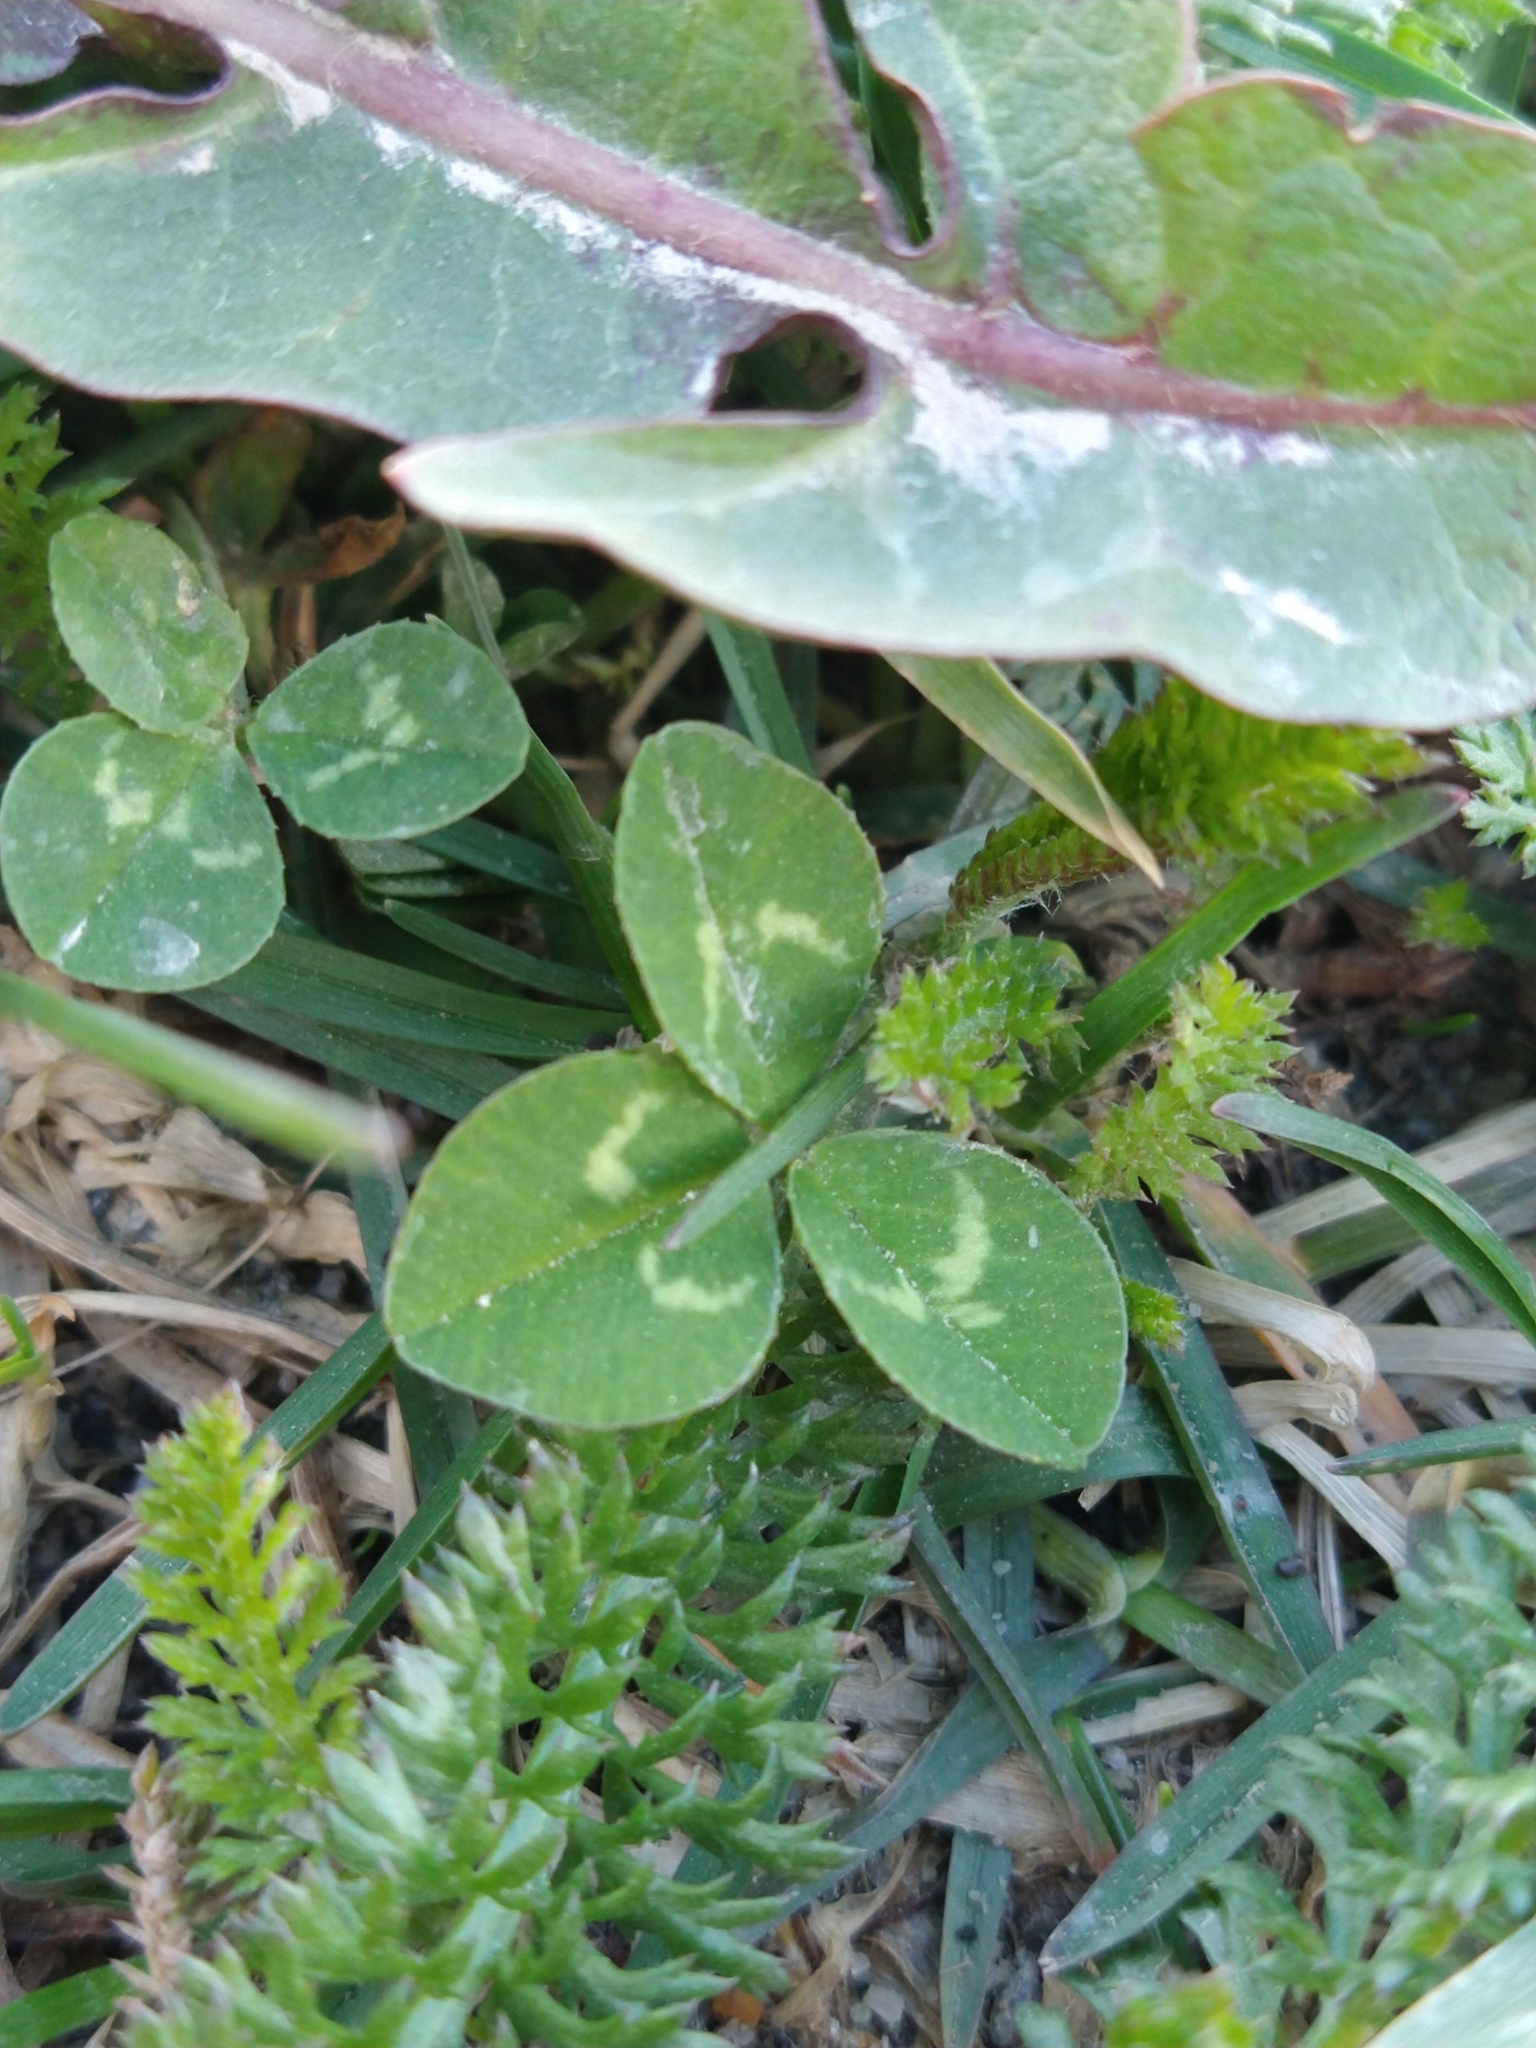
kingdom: Plantae
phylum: Tracheophyta
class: Magnoliopsida
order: Fabales
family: Fabaceae
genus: Trifolium
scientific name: Trifolium repens
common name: White clover
